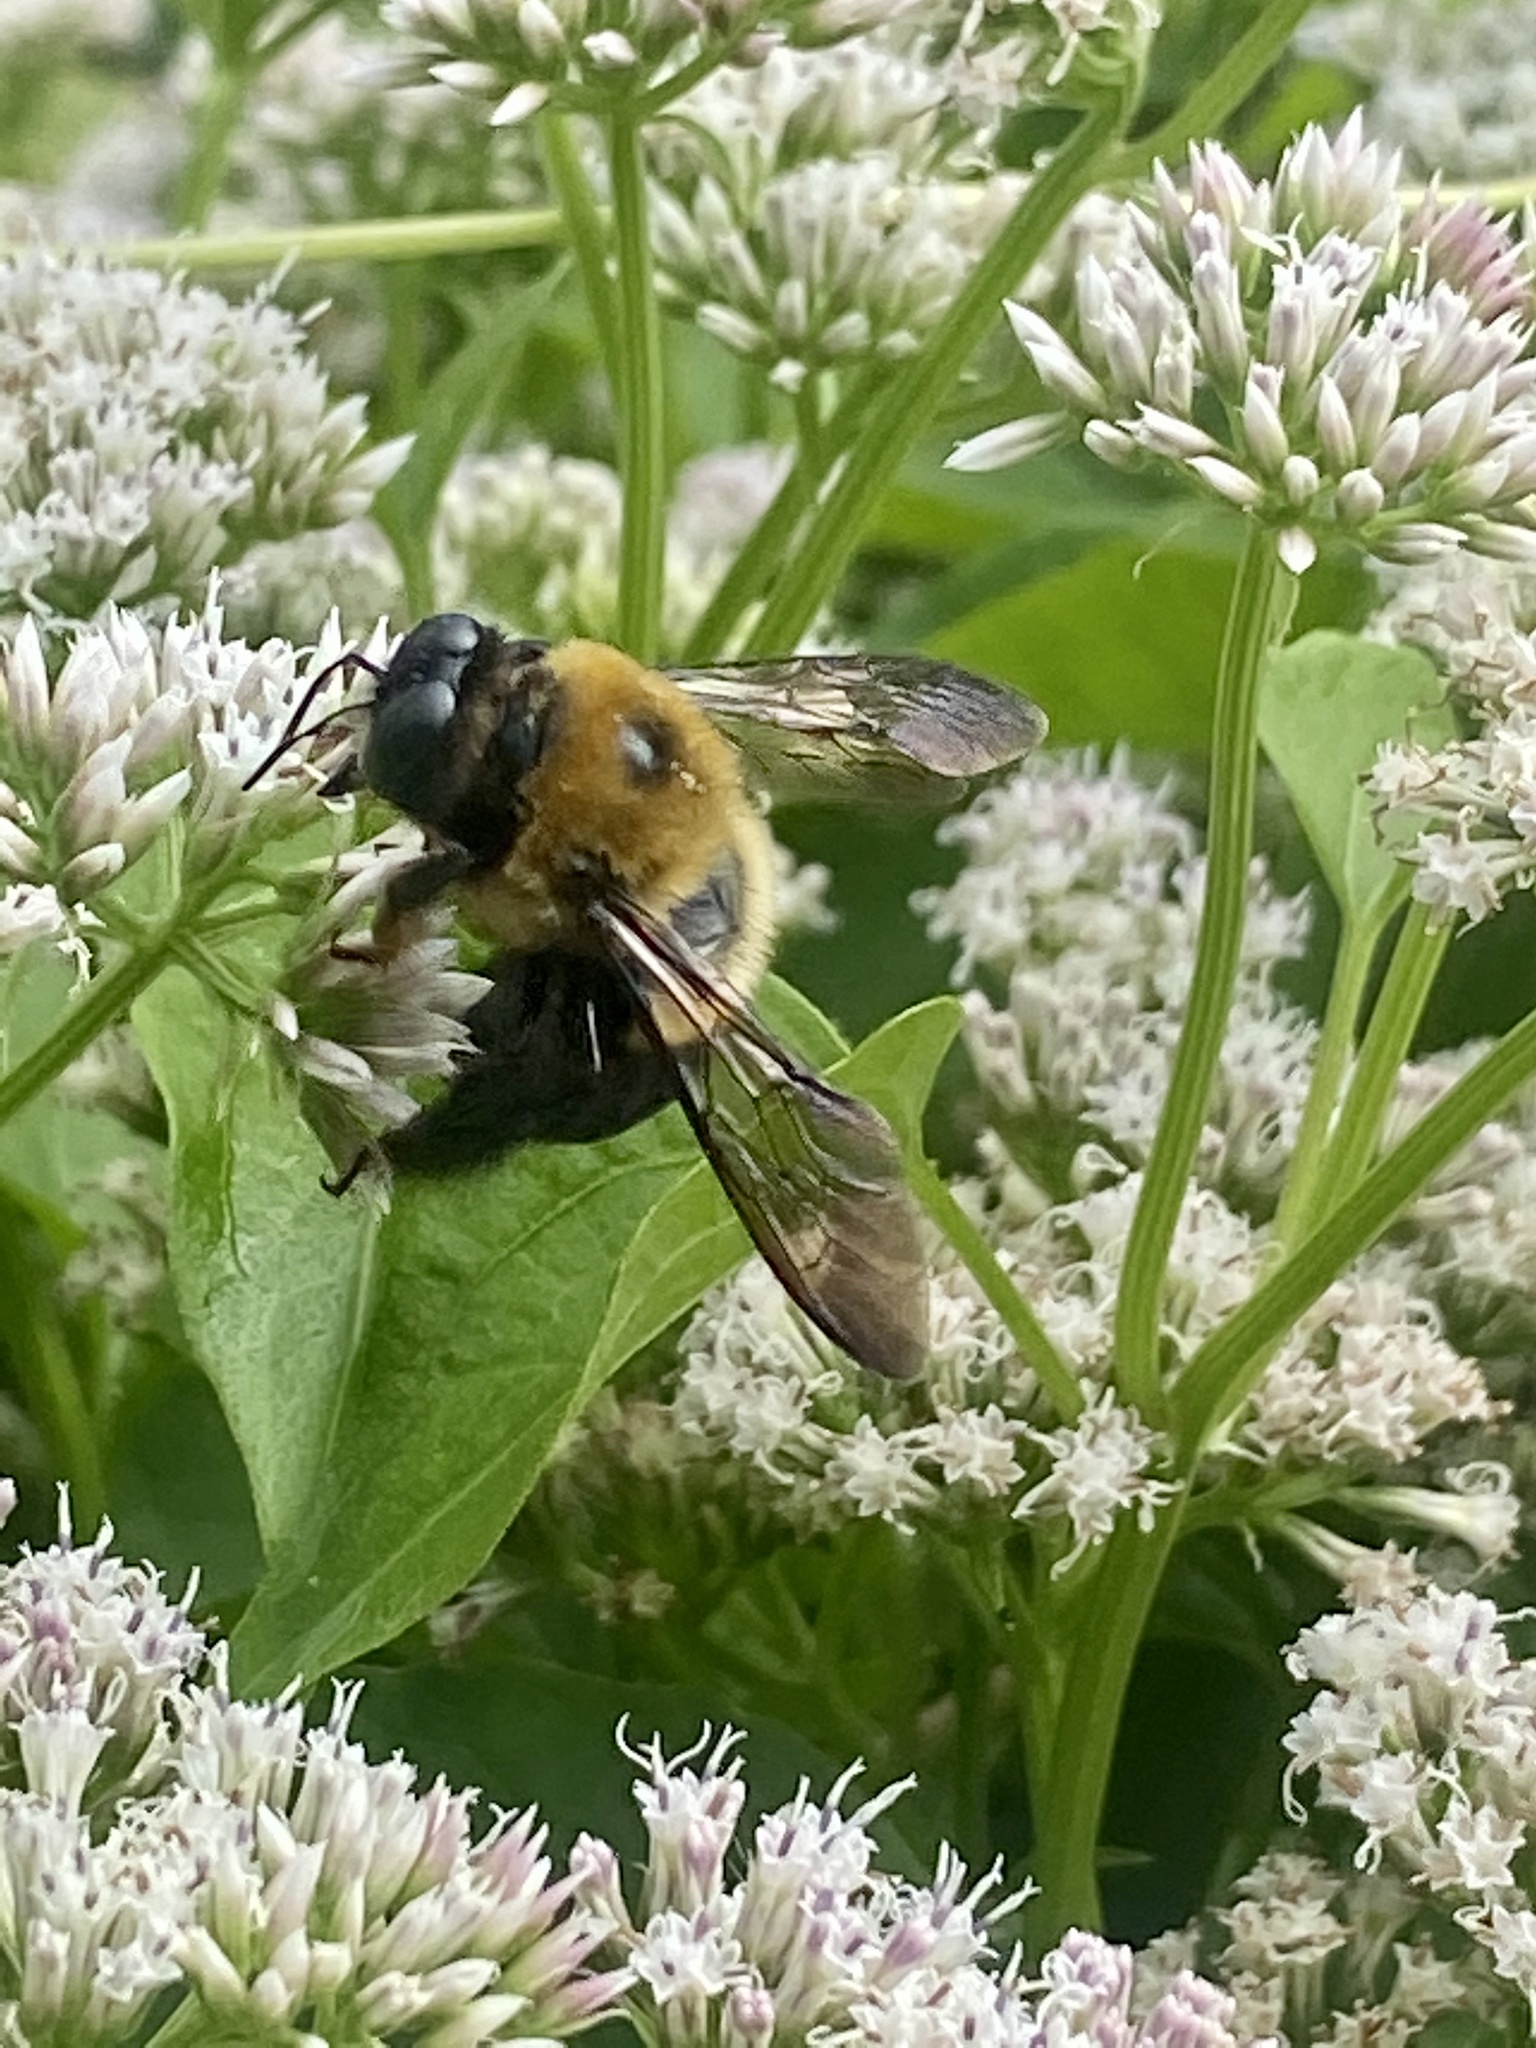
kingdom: Animalia
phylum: Arthropoda
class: Insecta
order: Hymenoptera
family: Apidae
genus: Xylocopa
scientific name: Xylocopa virginica
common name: Carpenter bee
